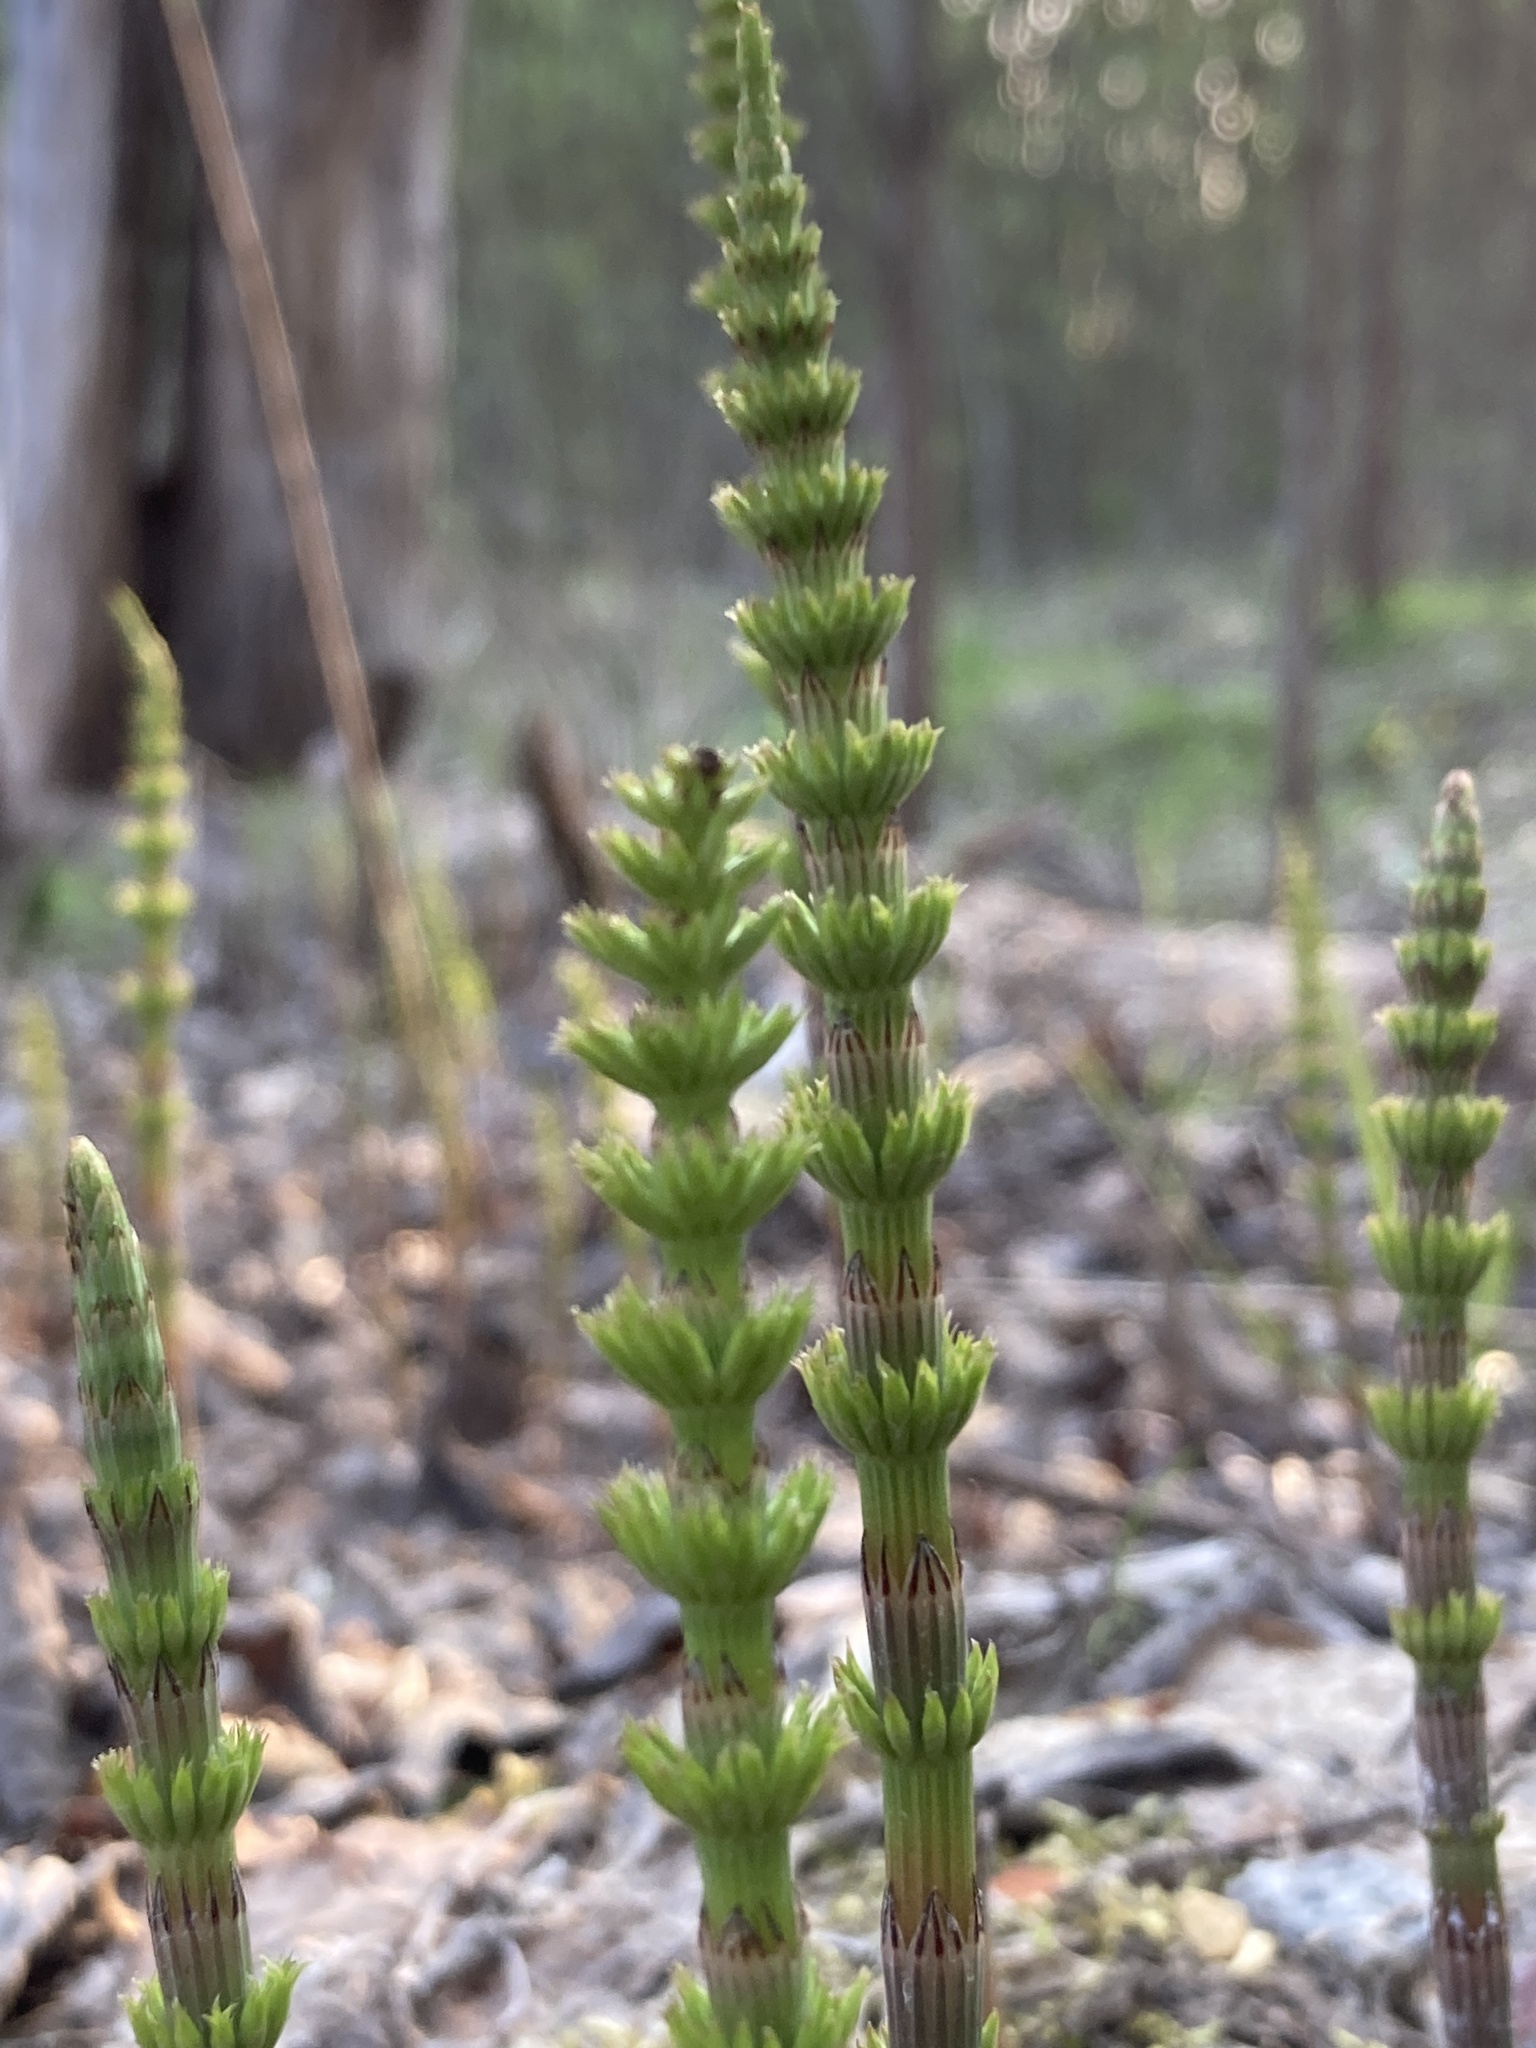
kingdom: Plantae
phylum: Tracheophyta
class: Polypodiopsida
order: Equisetales
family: Equisetaceae
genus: Equisetum
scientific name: Equisetum arvense
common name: Field horsetail
